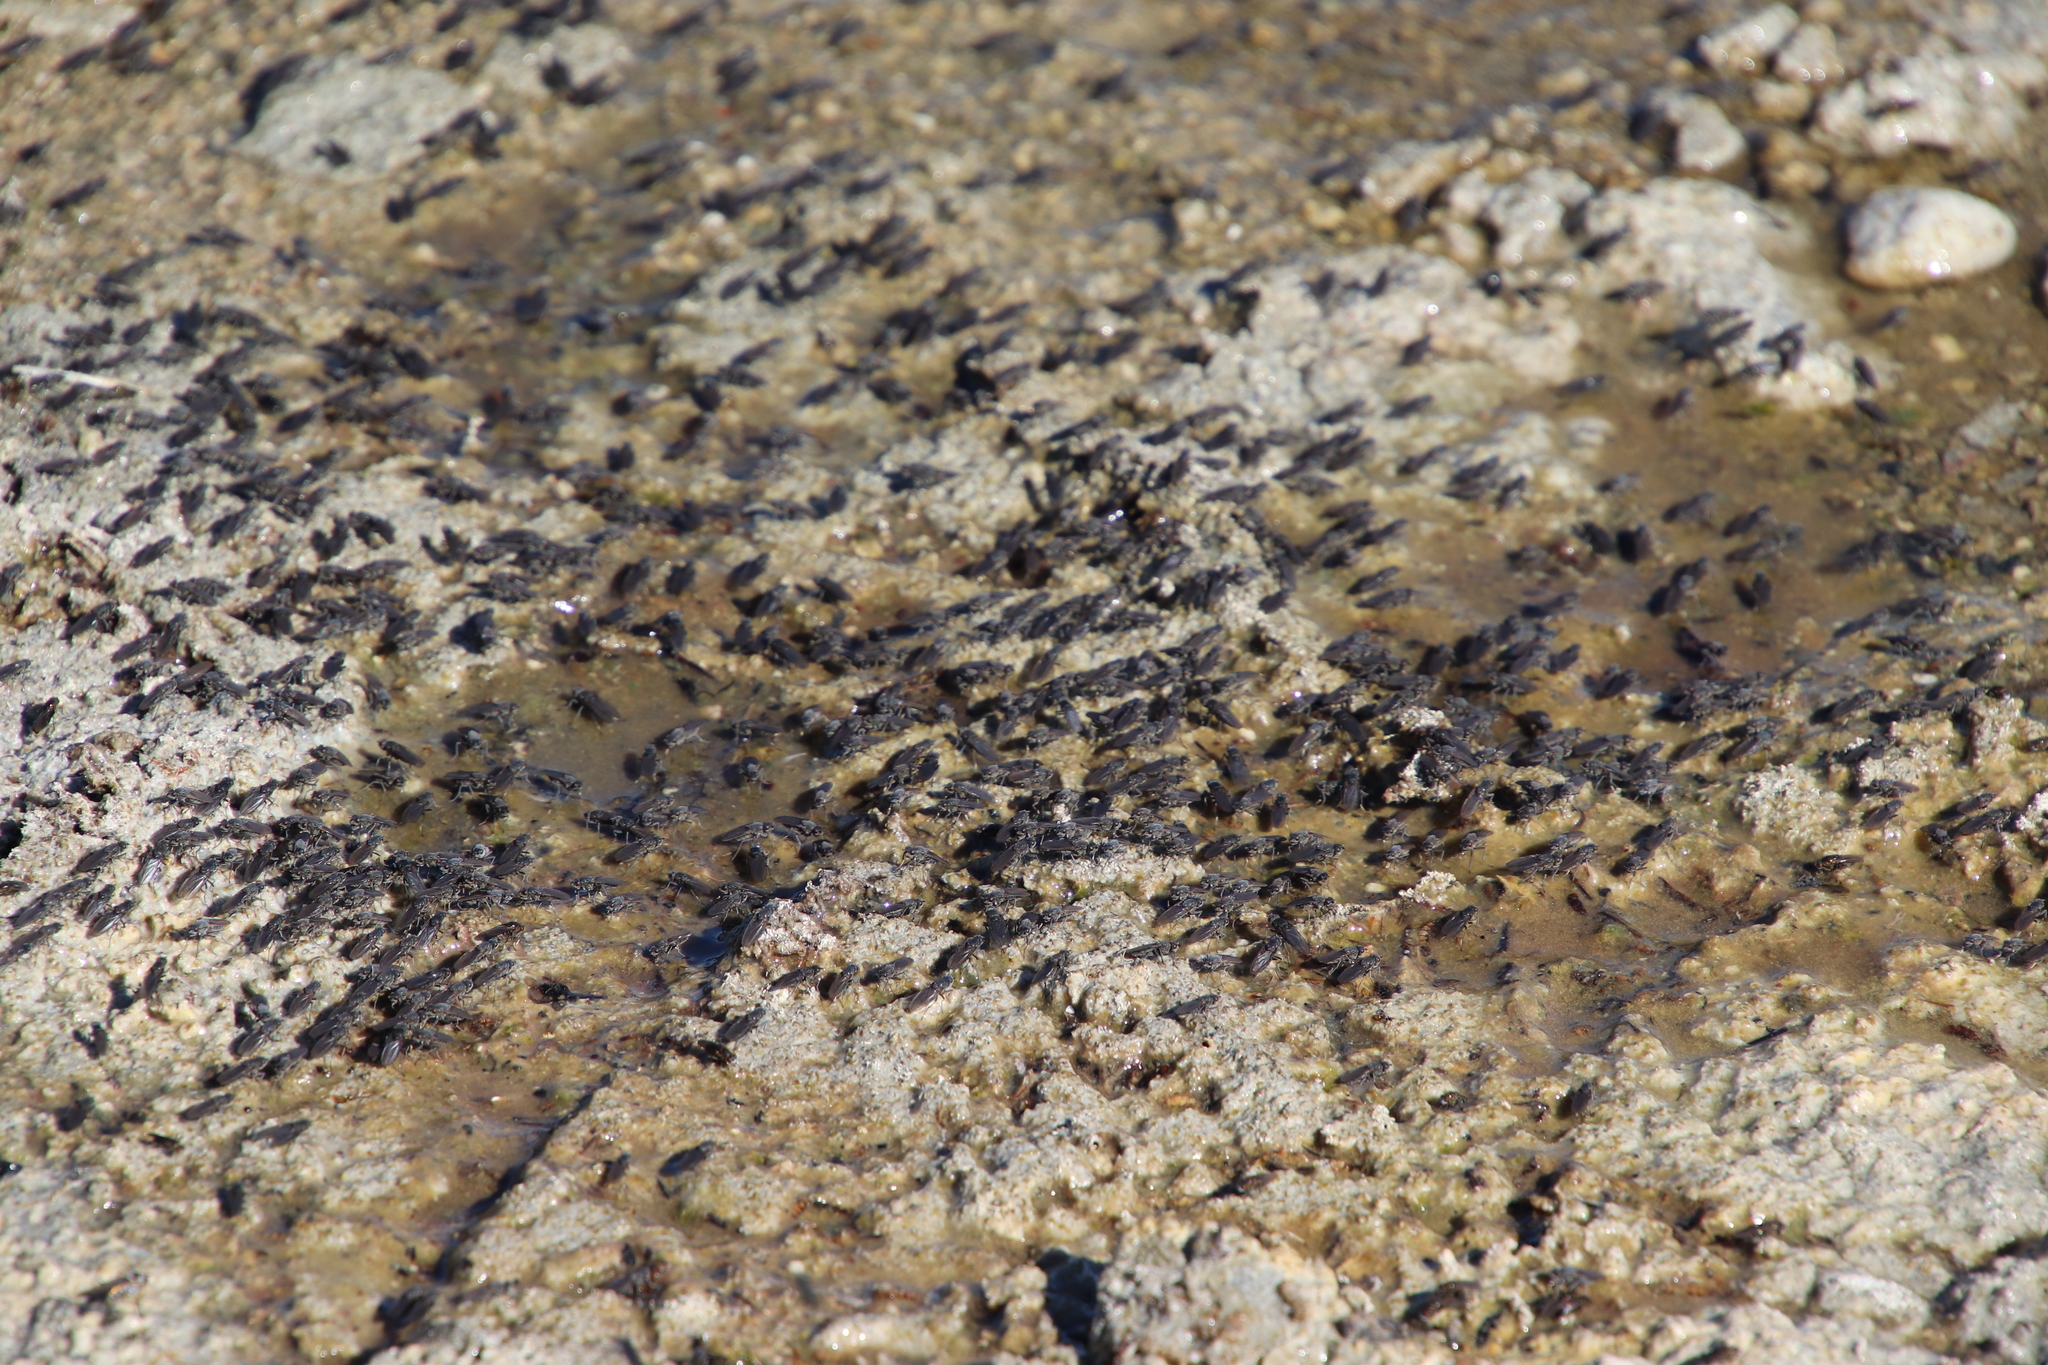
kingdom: Animalia
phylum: Arthropoda
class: Insecta
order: Diptera
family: Ephydridae
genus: Cirrula
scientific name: Cirrula hians
